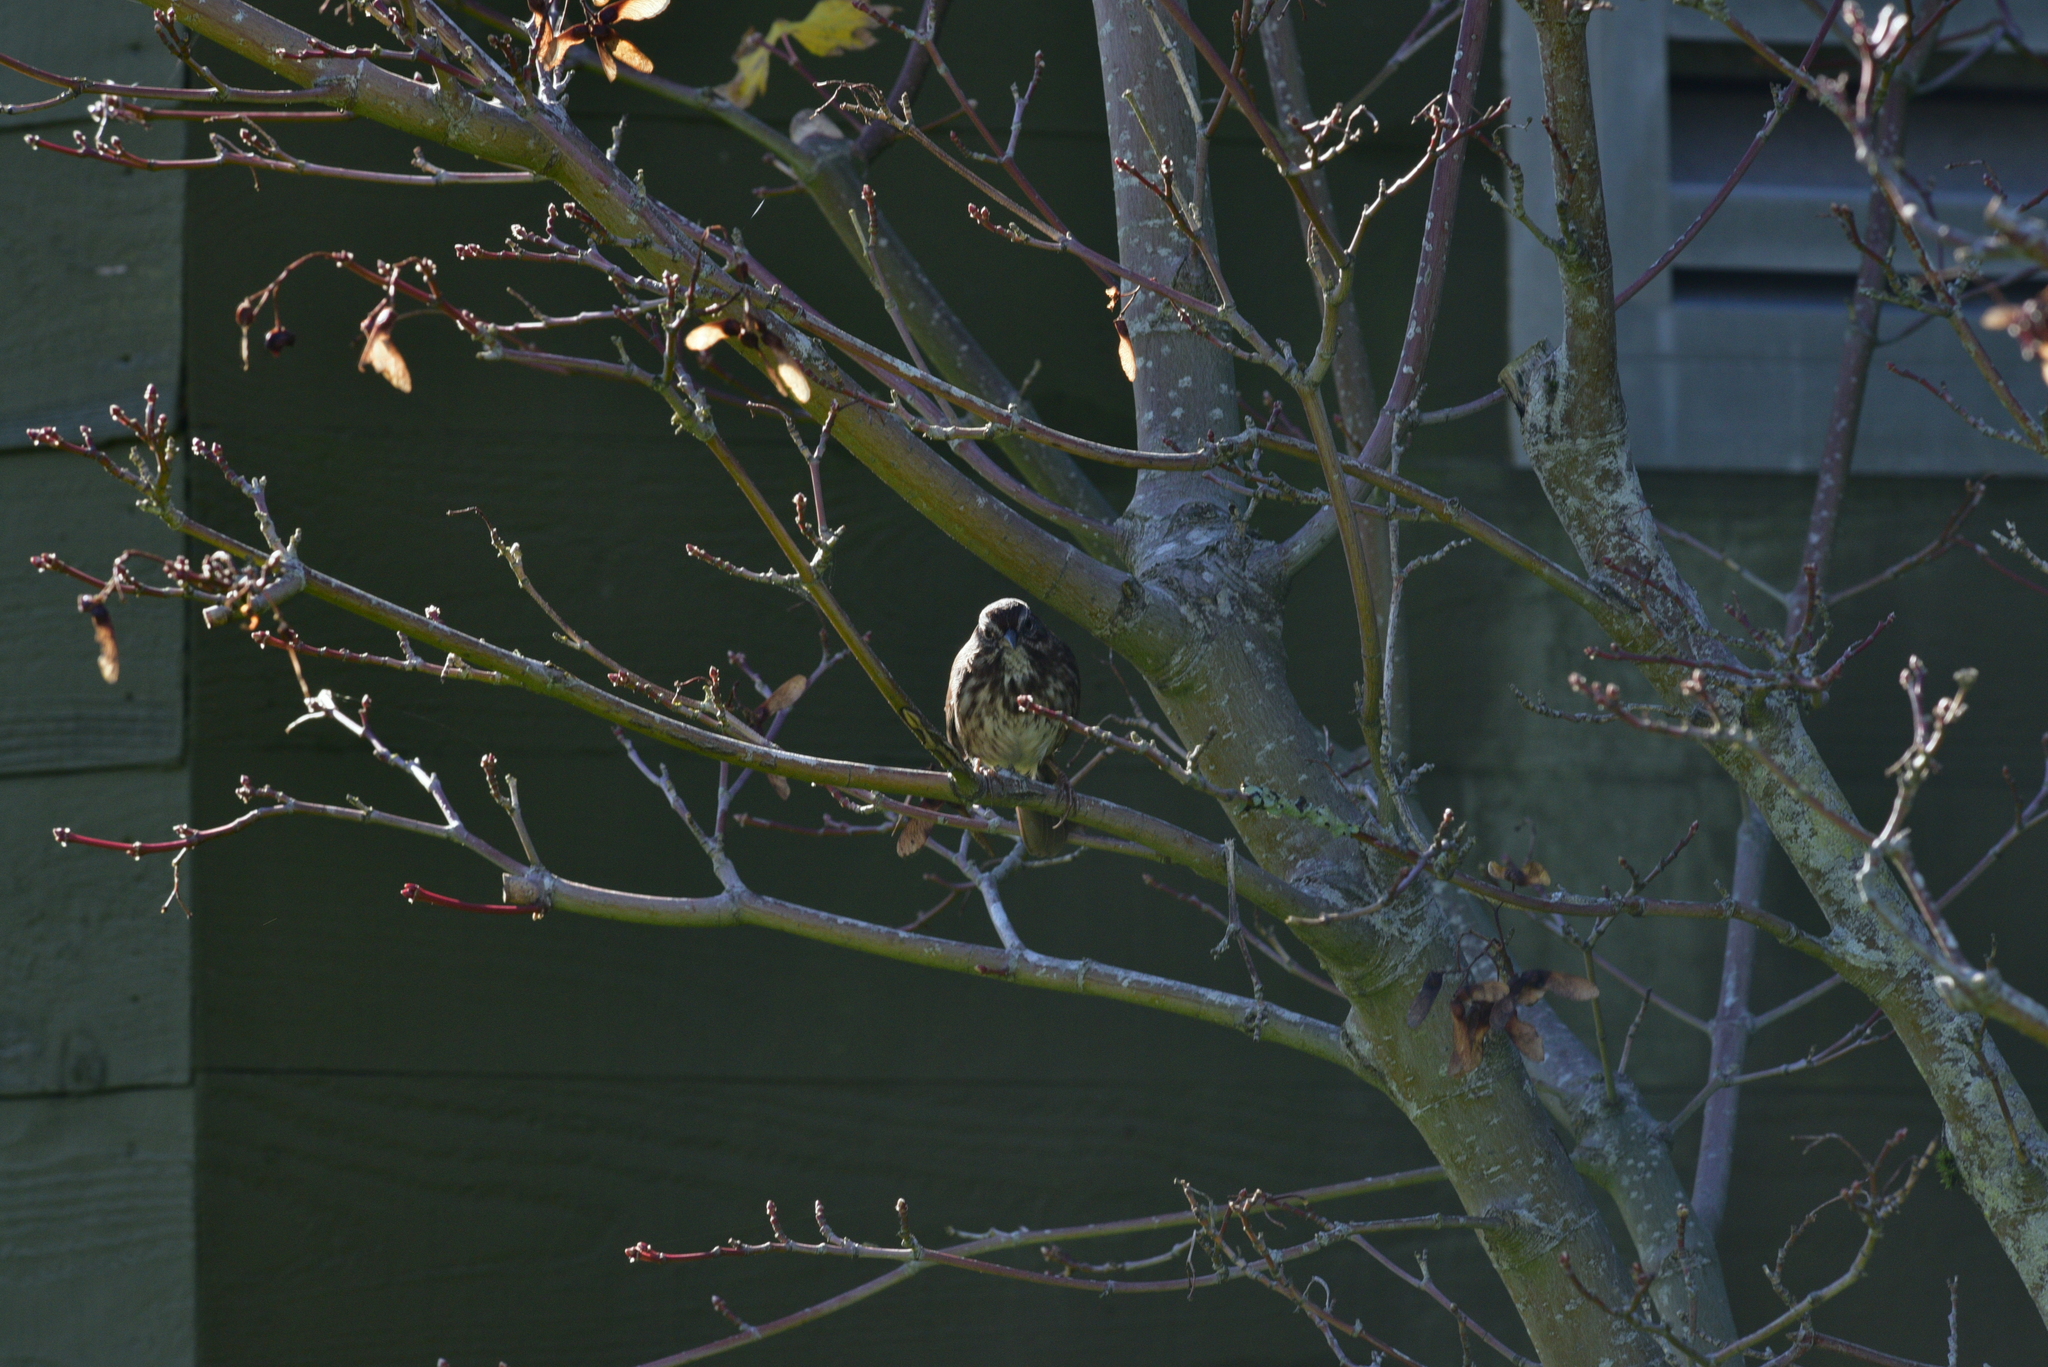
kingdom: Animalia
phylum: Chordata
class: Aves
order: Passeriformes
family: Passerellidae
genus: Melospiza
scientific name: Melospiza melodia
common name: Song sparrow
